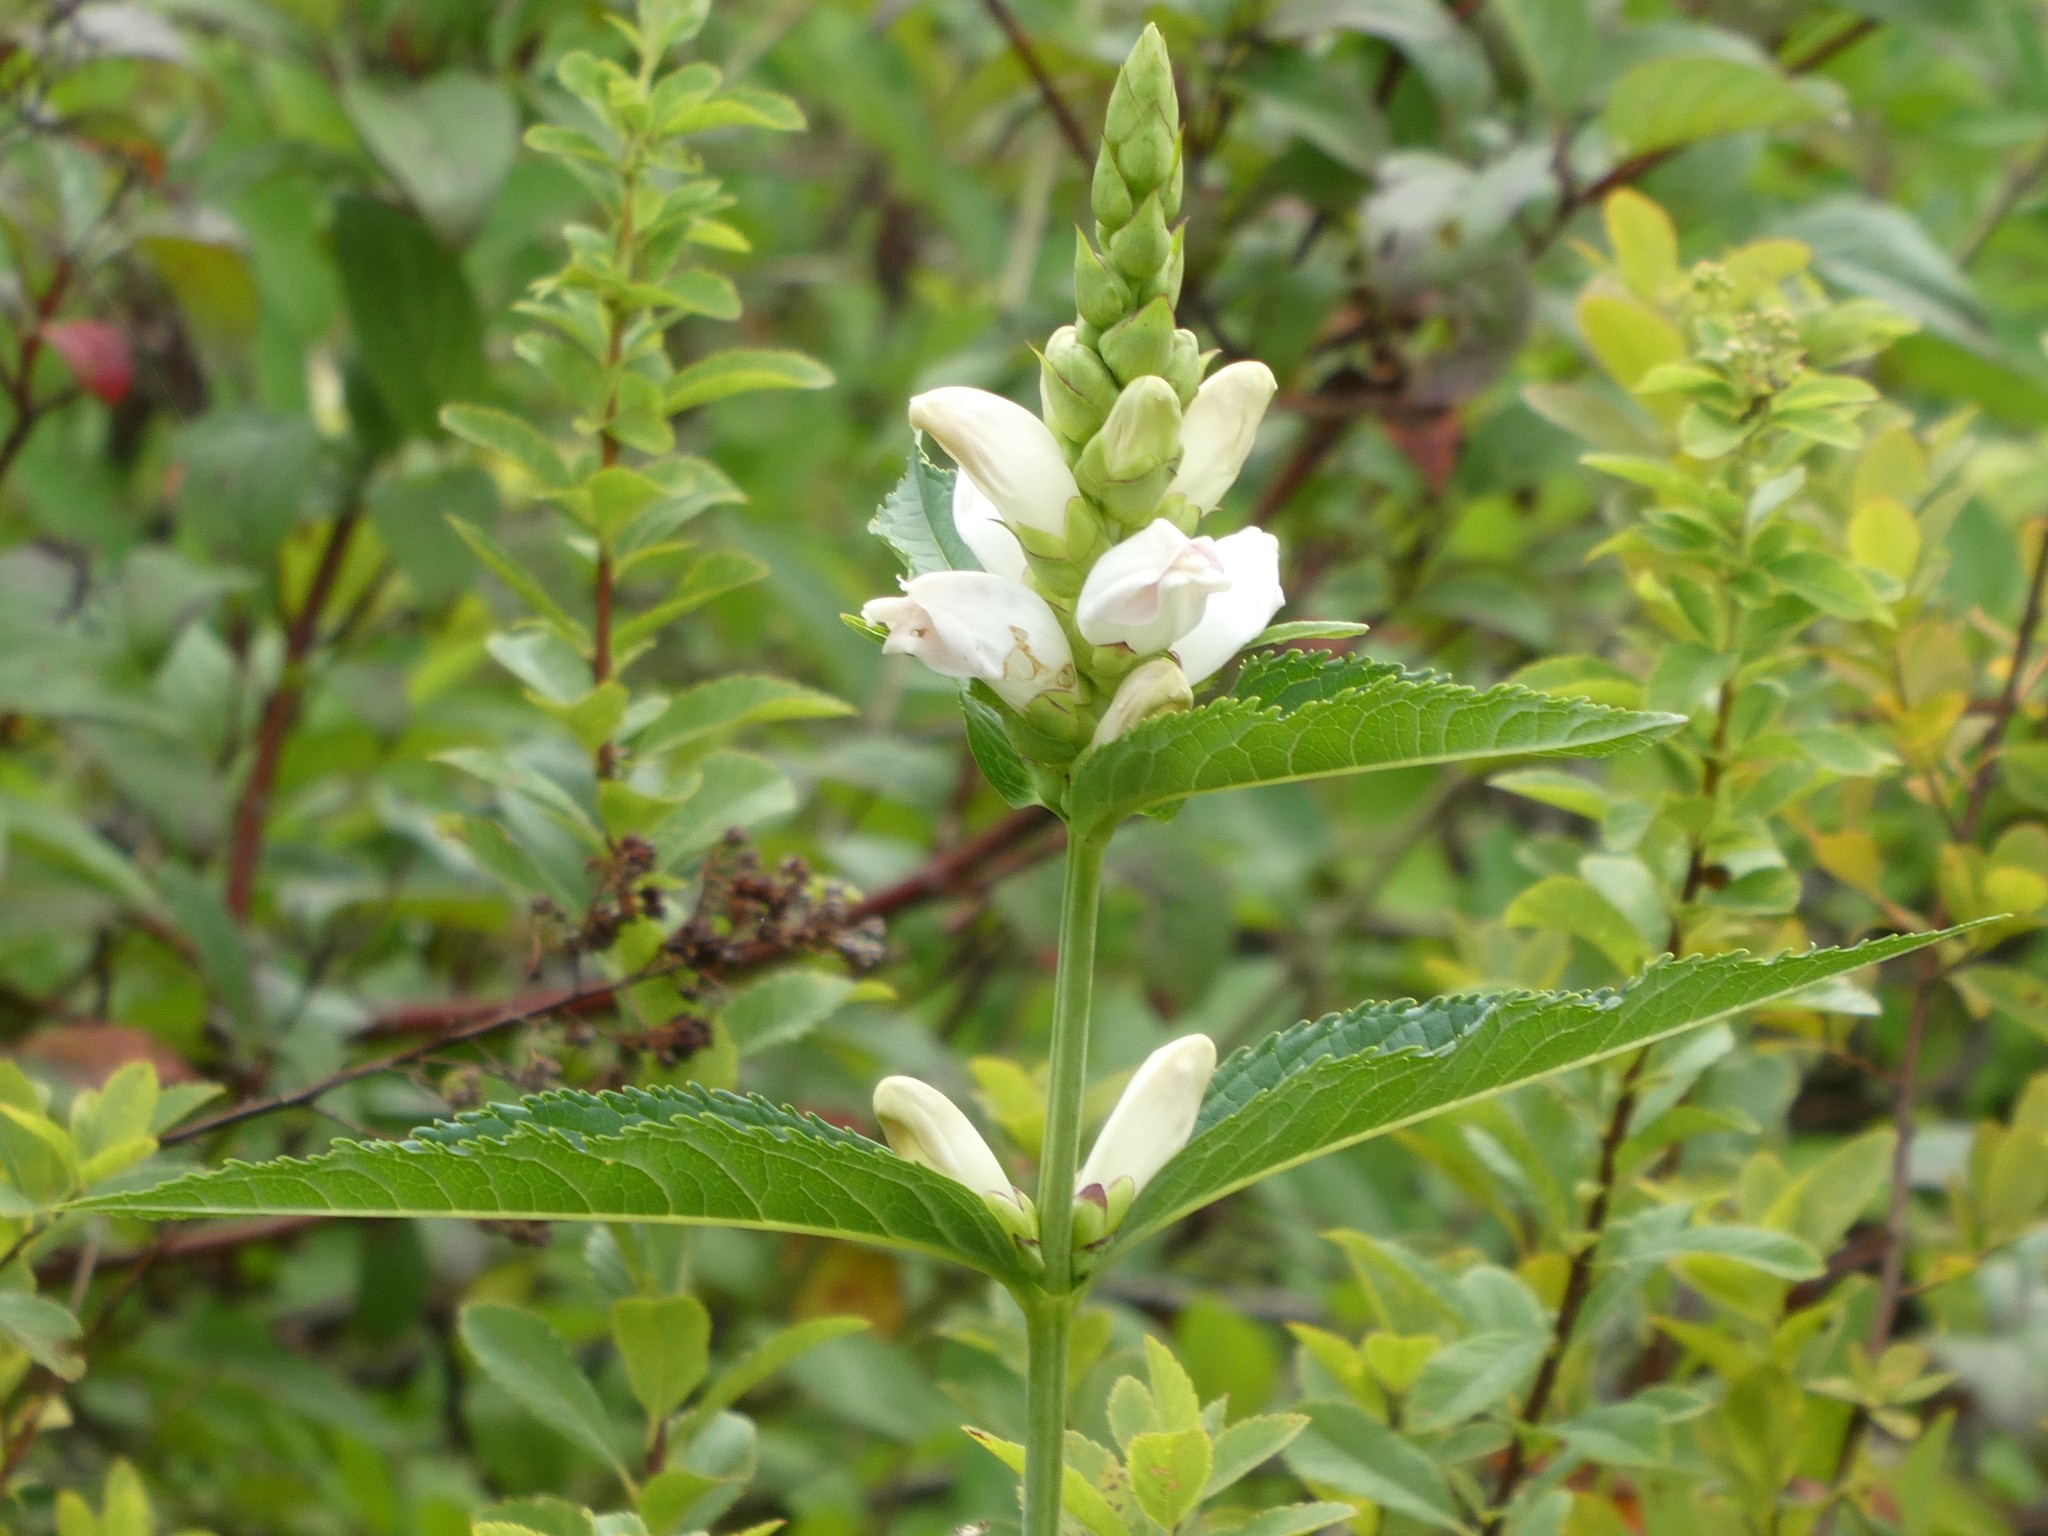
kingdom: Plantae
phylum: Tracheophyta
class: Magnoliopsida
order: Lamiales
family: Plantaginaceae
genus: Chelone
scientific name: Chelone glabra
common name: Snakehead
